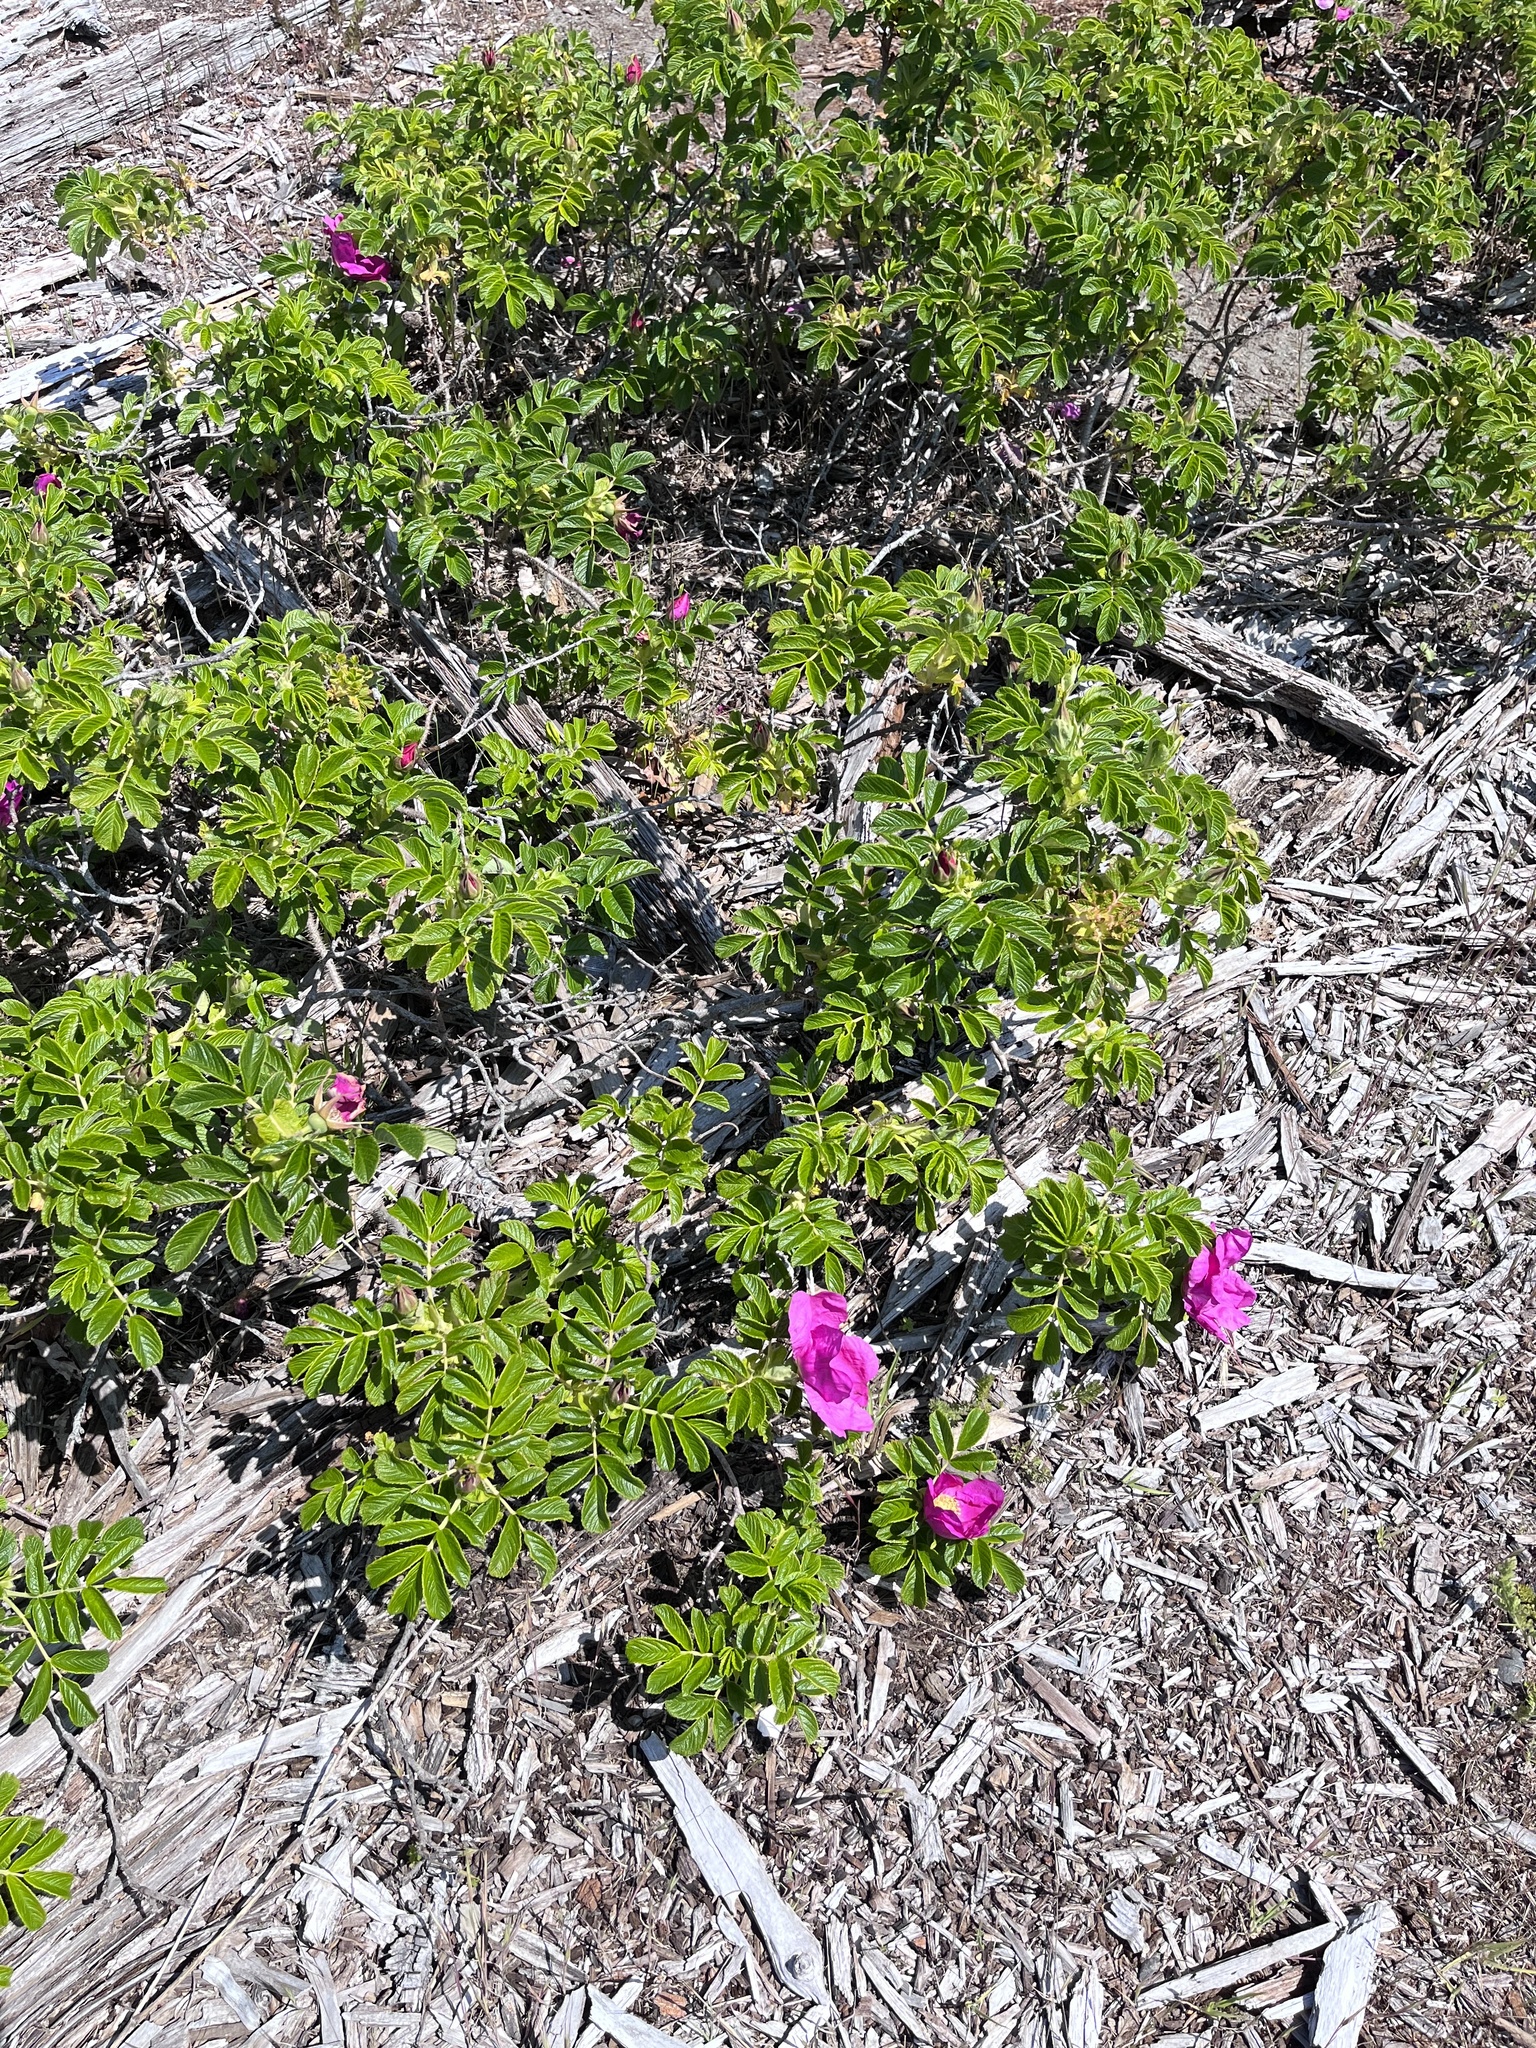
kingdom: Plantae
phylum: Tracheophyta
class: Magnoliopsida
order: Rosales
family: Rosaceae
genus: Rosa
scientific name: Rosa rugosa
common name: Japanese rose
